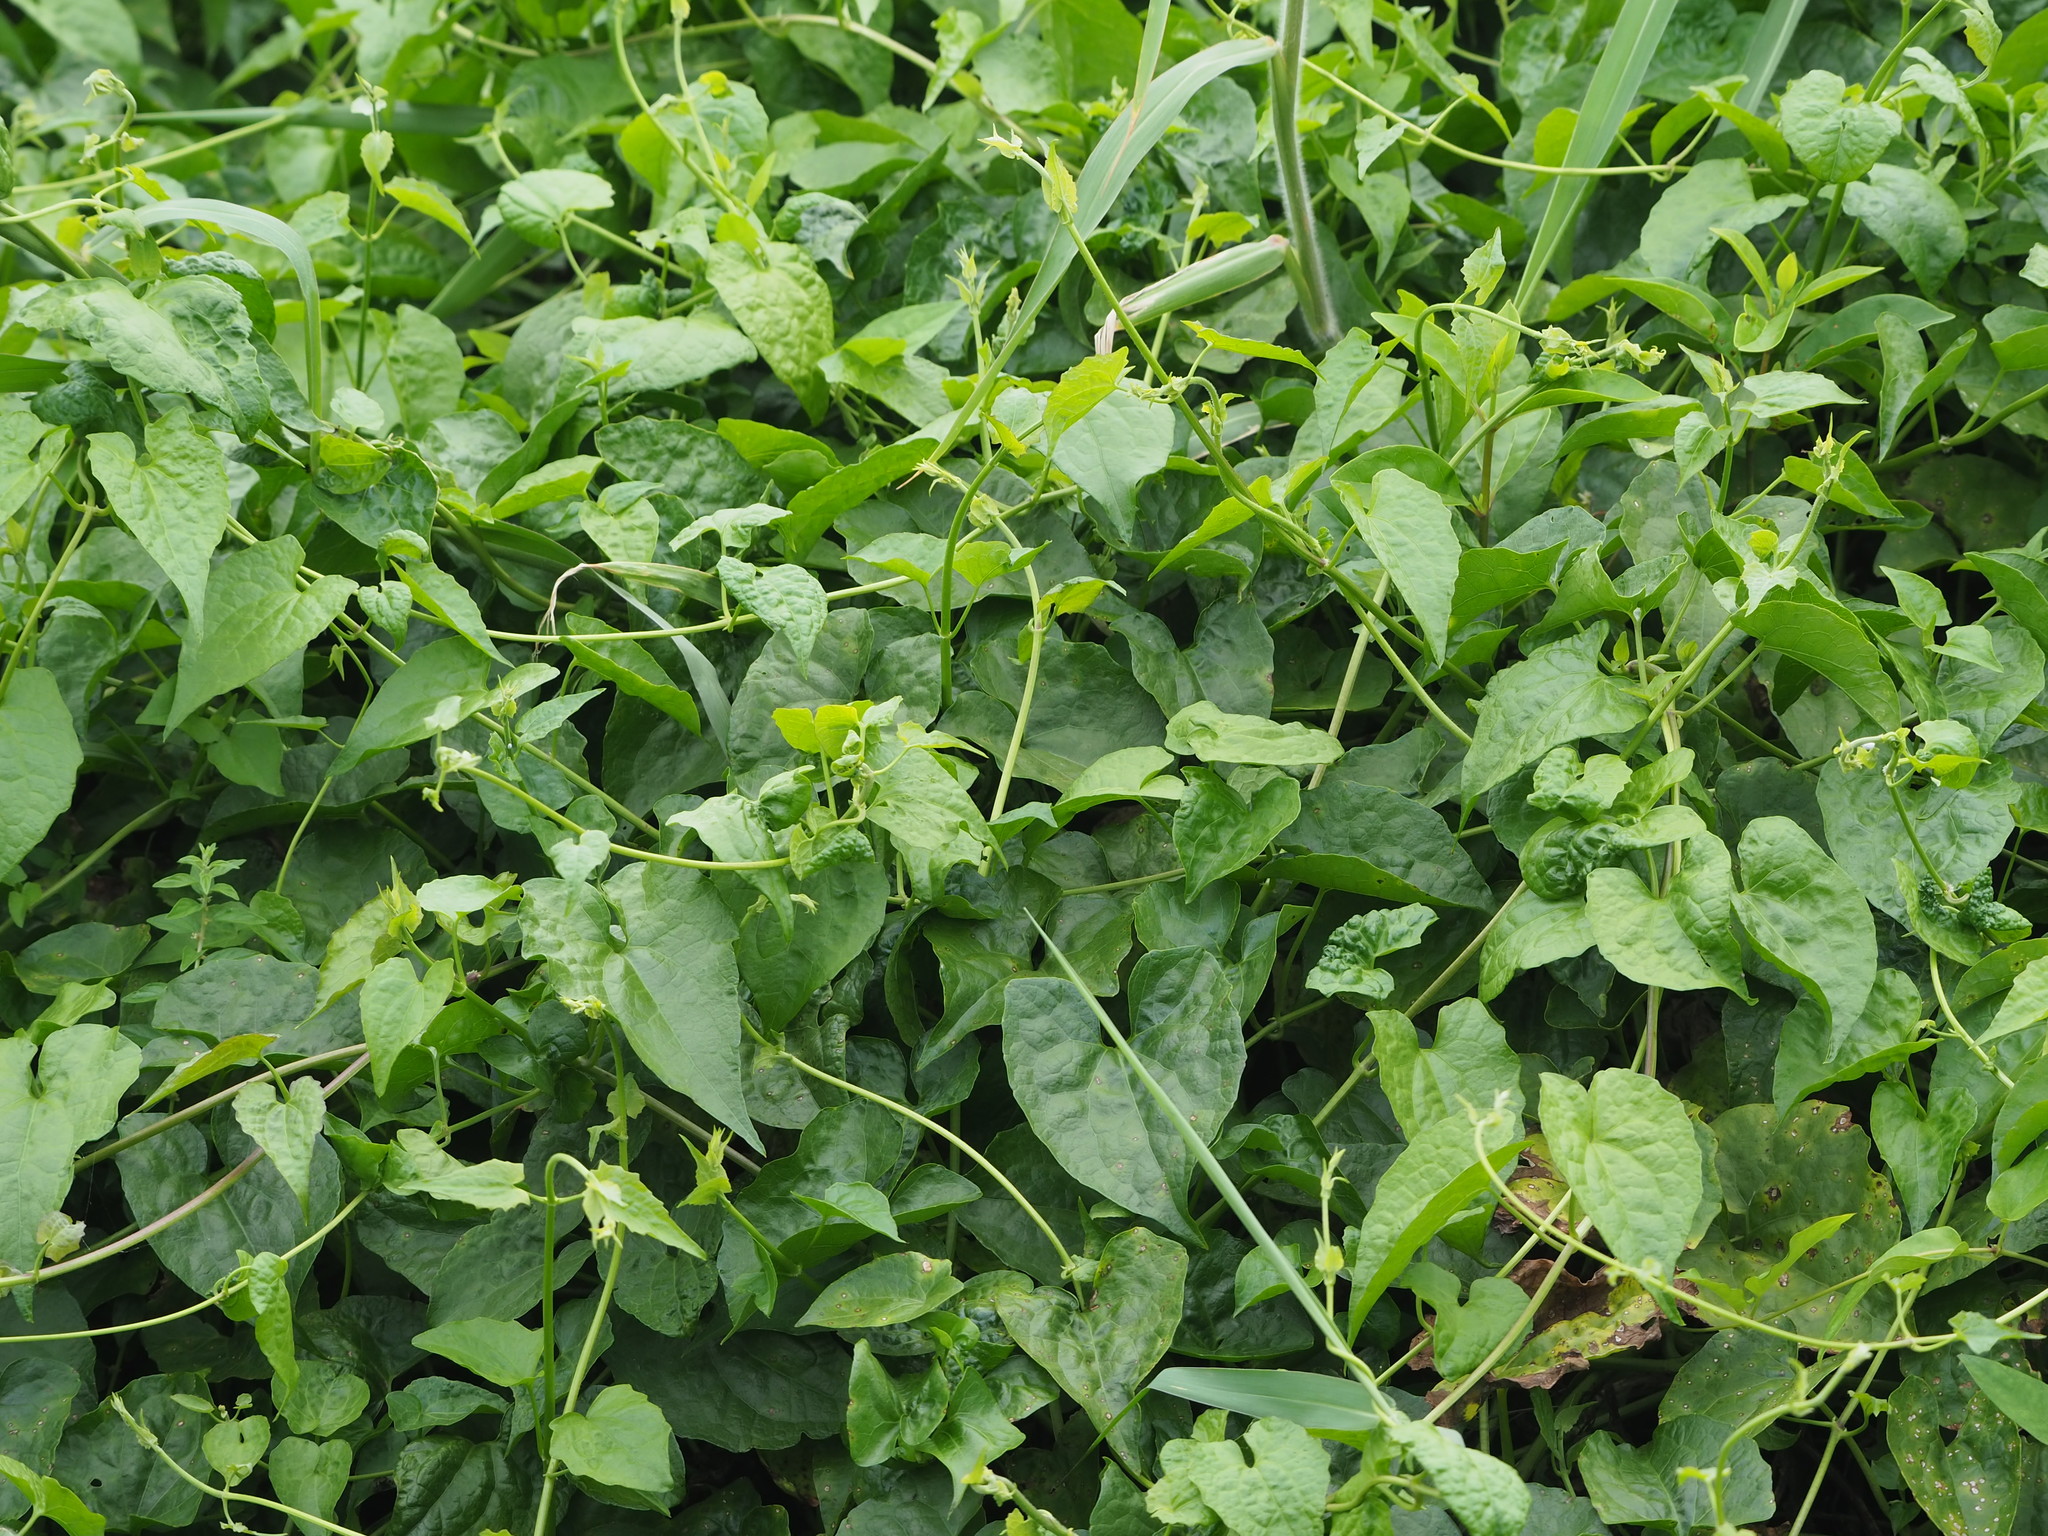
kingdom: Plantae
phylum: Tracheophyta
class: Magnoliopsida
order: Asterales
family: Asteraceae
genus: Mikania
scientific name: Mikania micrantha
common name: Mile-a-minute
